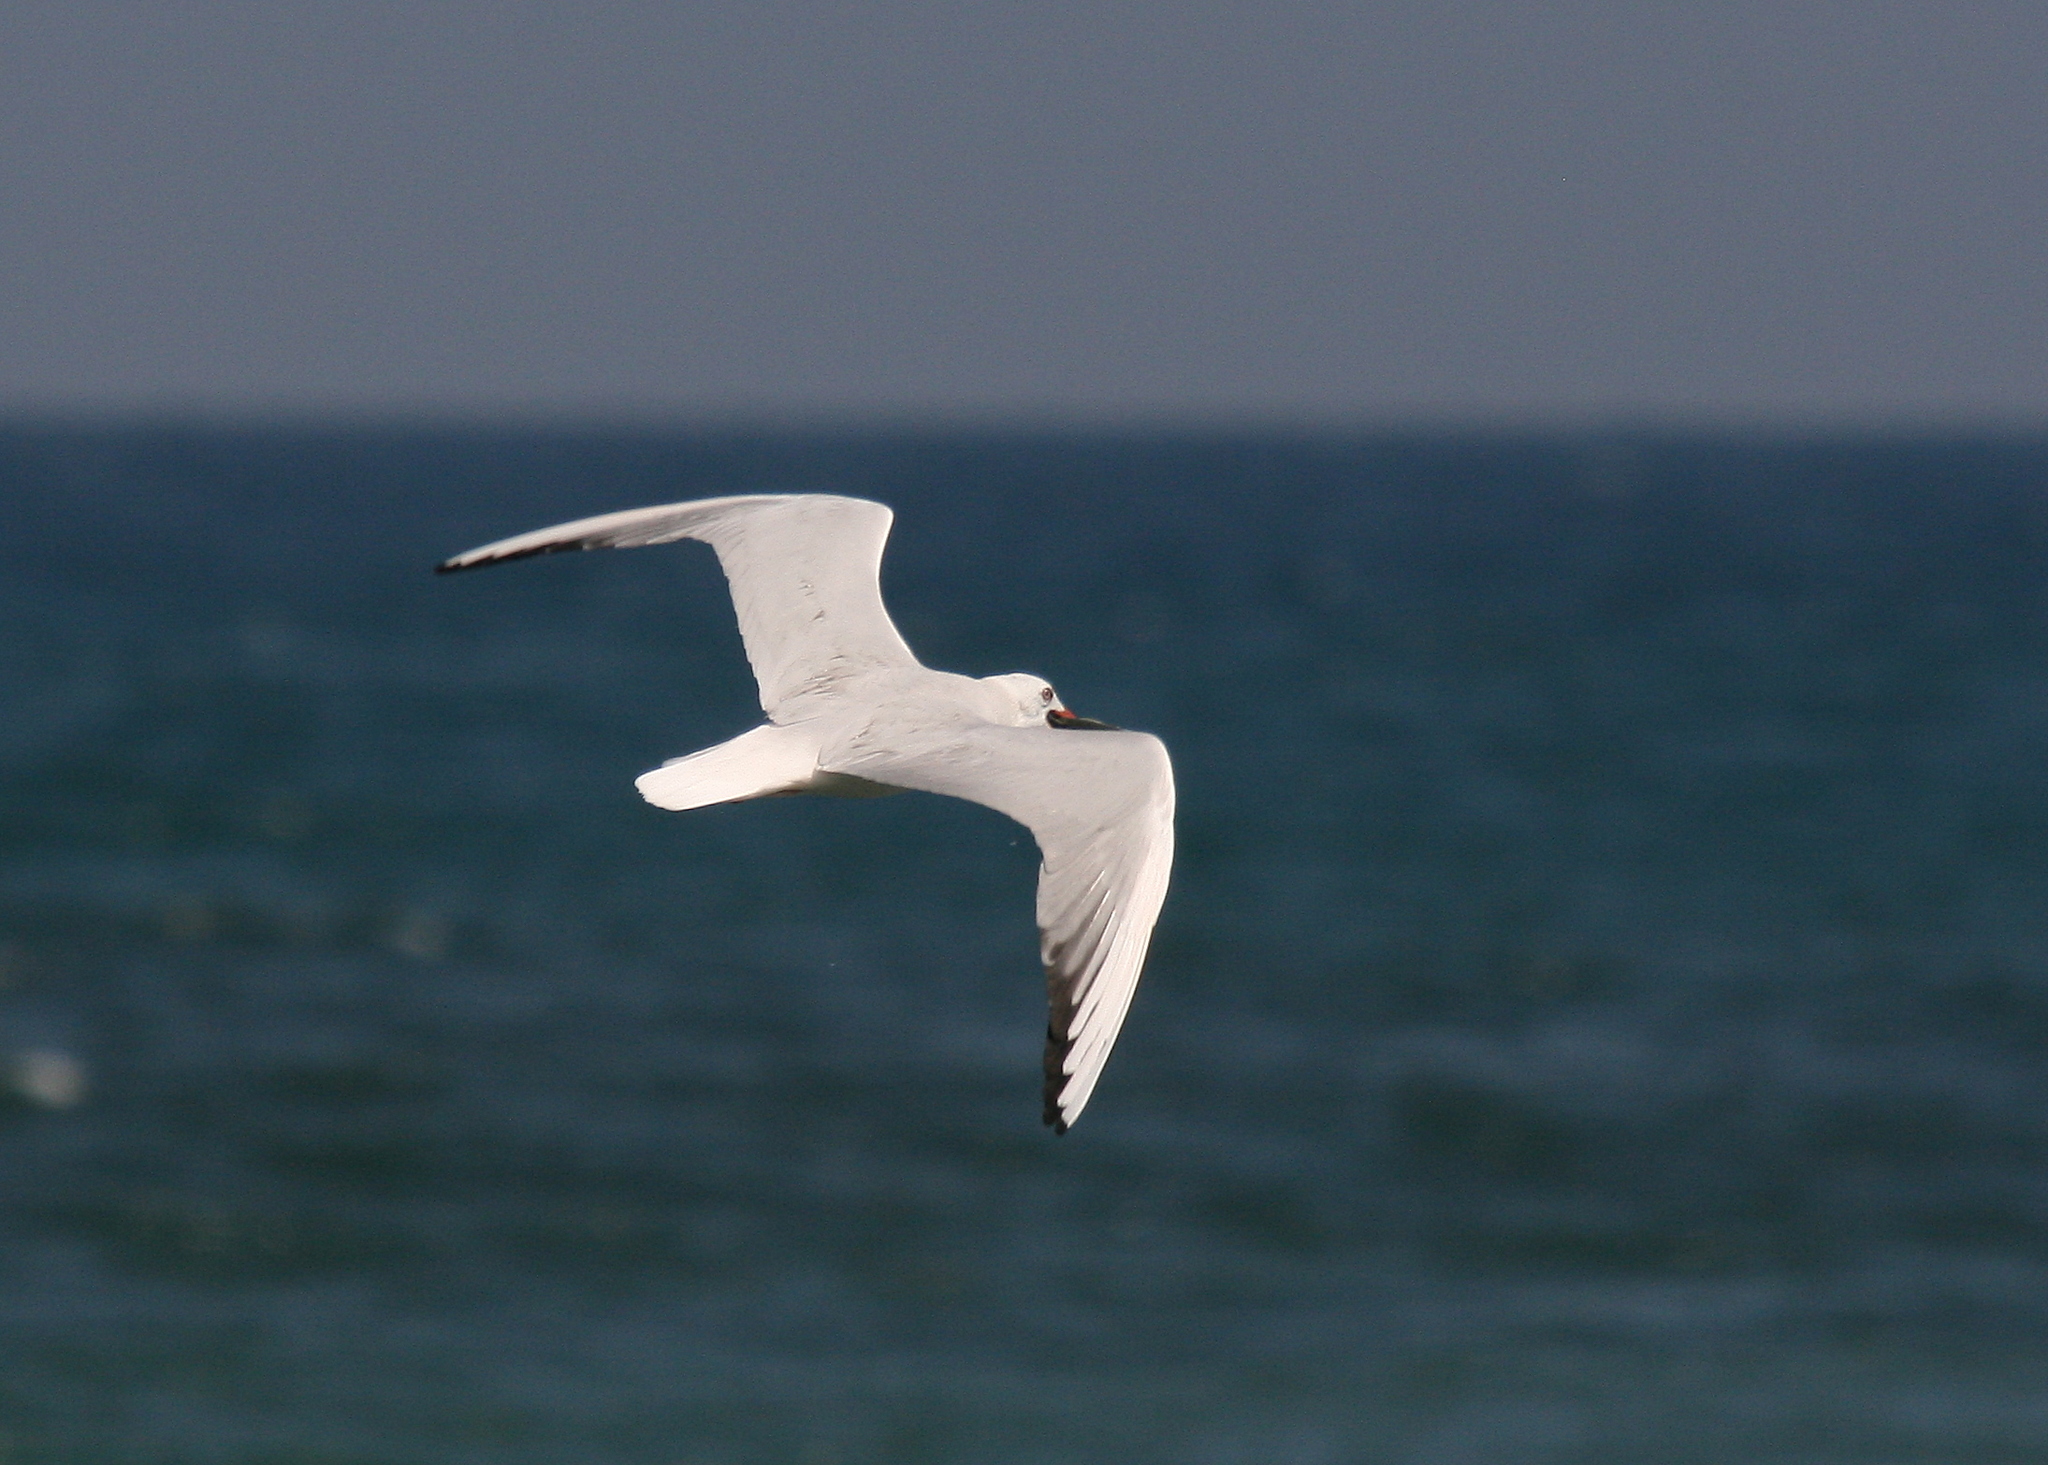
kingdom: Animalia
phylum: Chordata
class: Aves
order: Charadriiformes
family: Laridae
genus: Chroicocephalus
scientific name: Chroicocephalus genei
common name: Slender-billed gull
